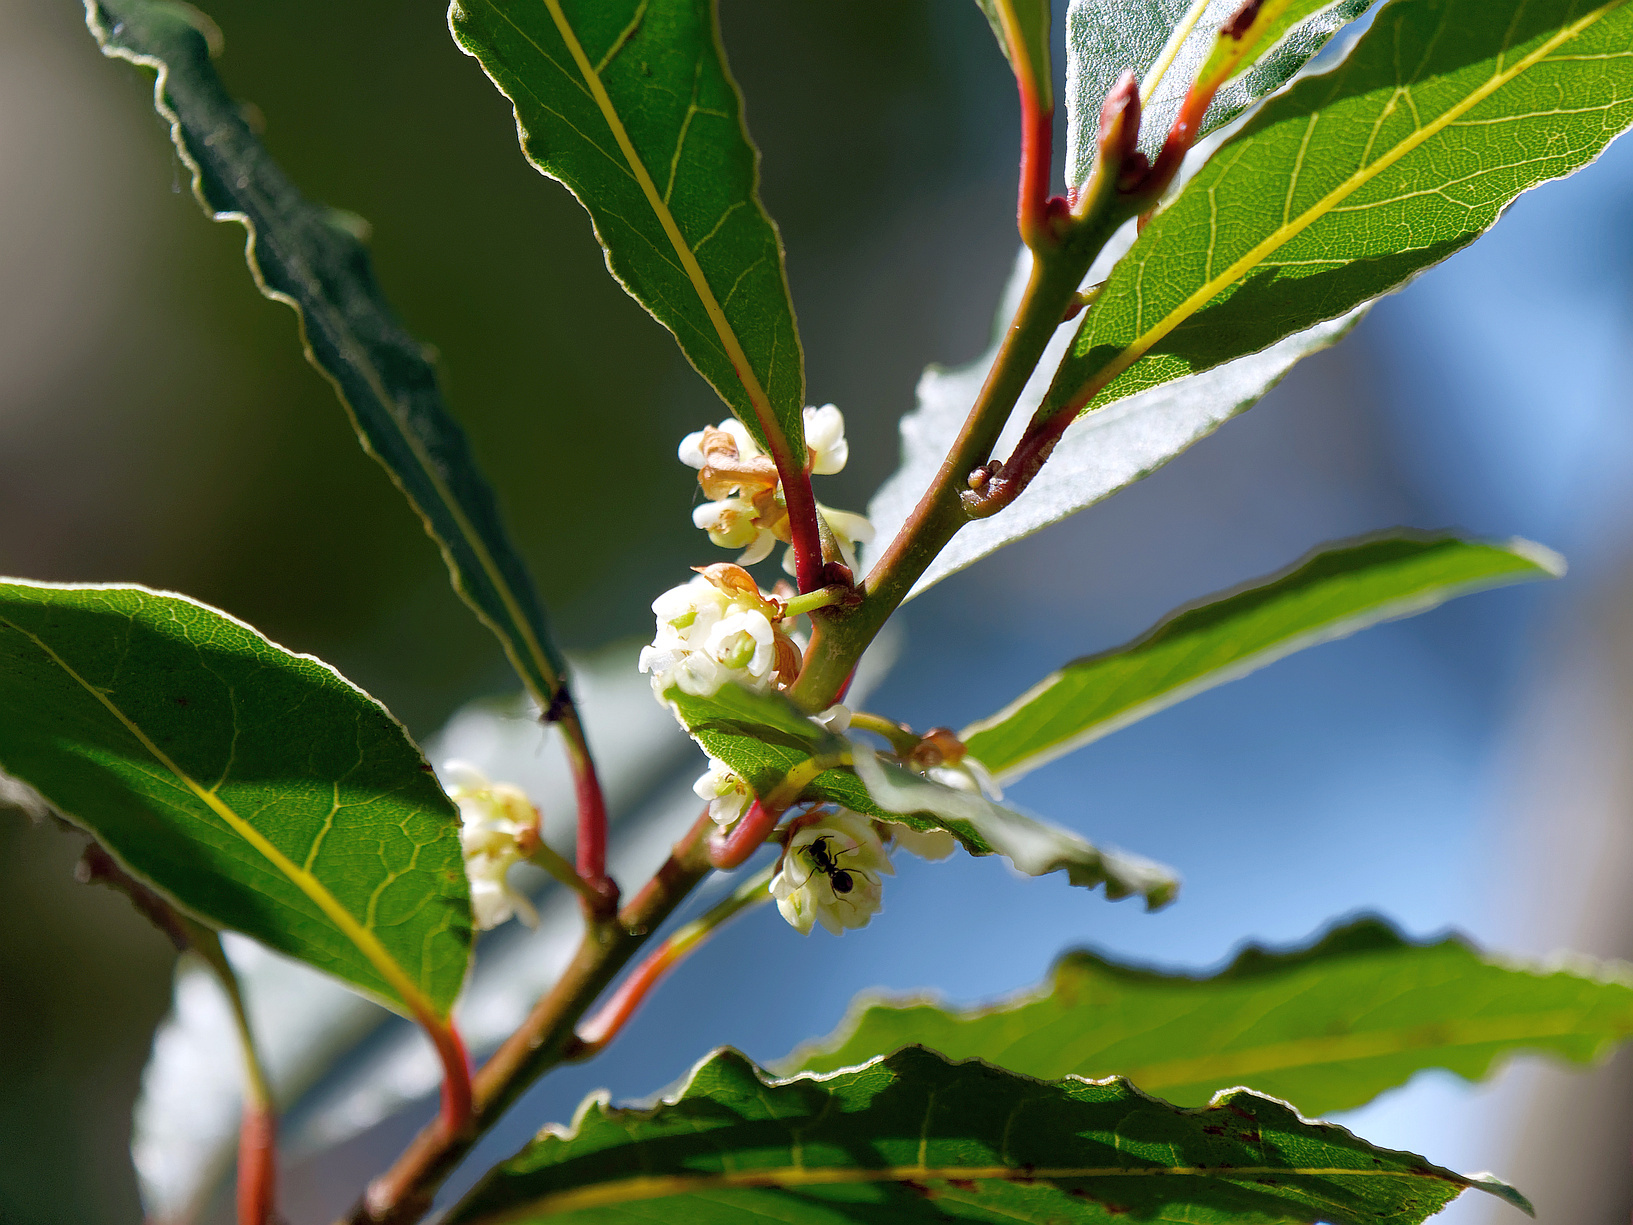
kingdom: Plantae
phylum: Tracheophyta
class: Magnoliopsida
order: Laurales
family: Lauraceae
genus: Laurus
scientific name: Laurus nobilis
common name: Bay
